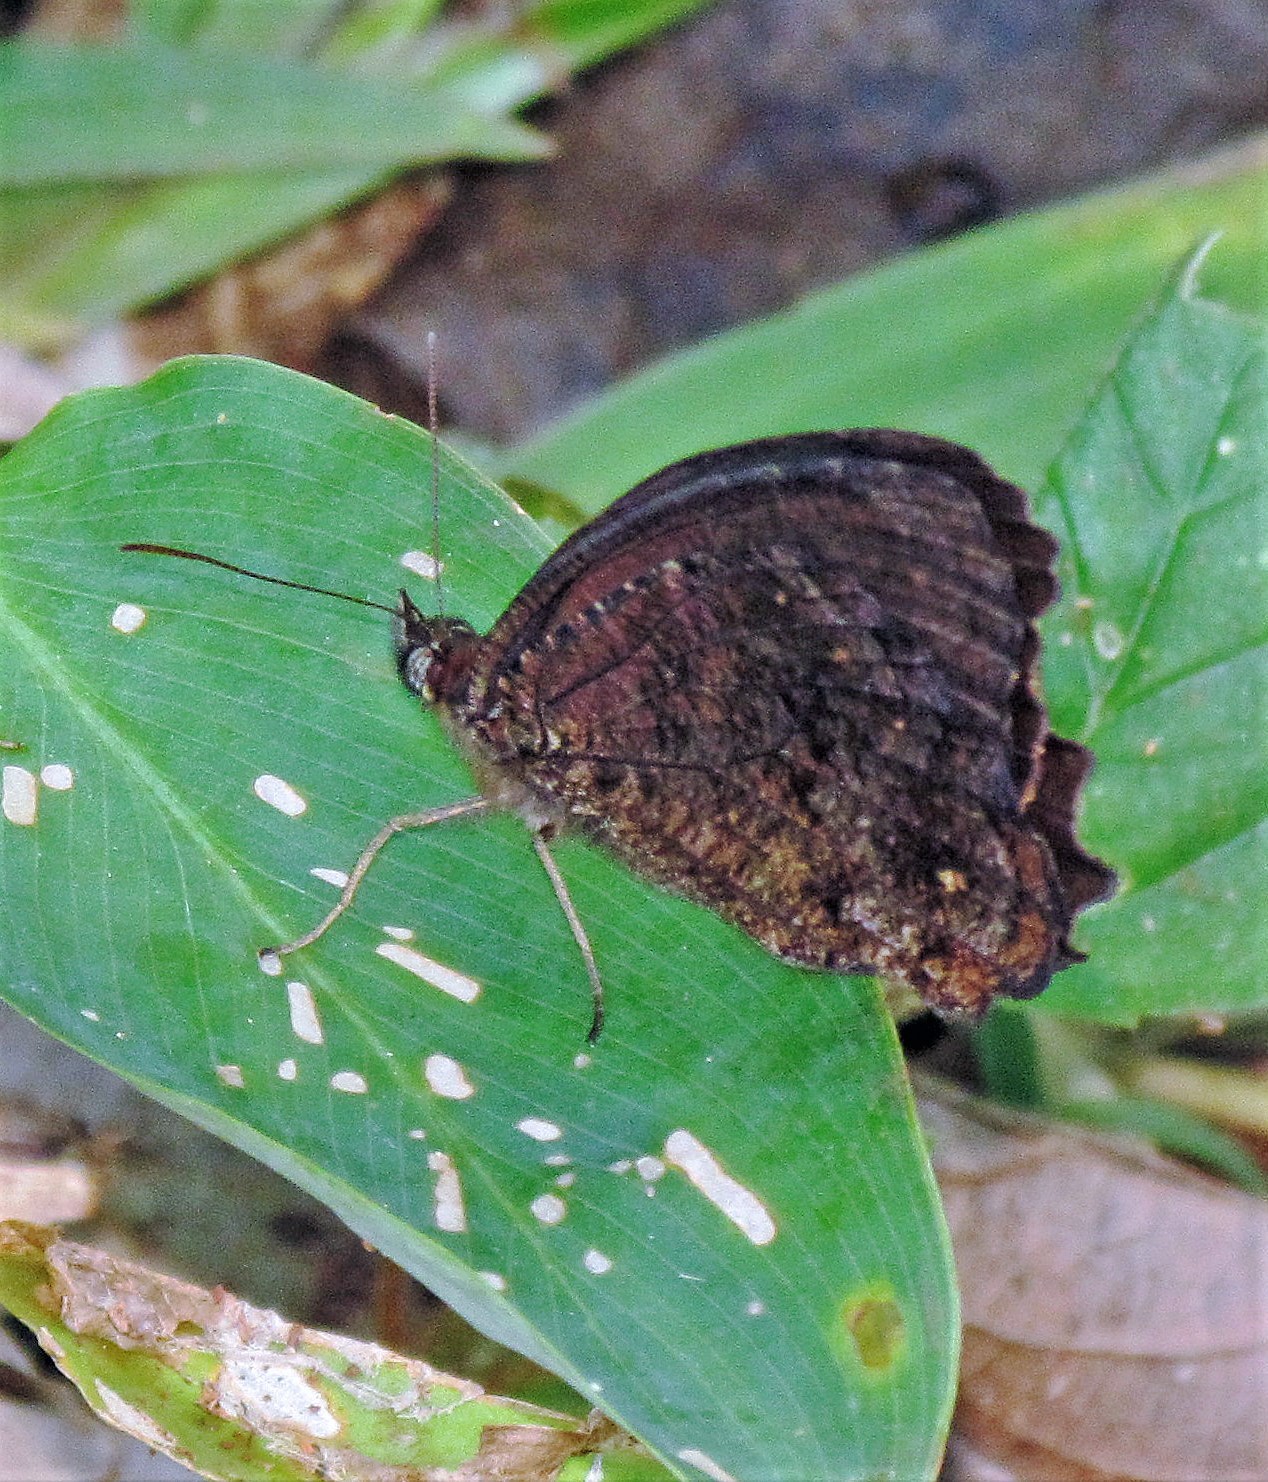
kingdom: Animalia
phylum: Arthropoda
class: Insecta
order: Lepidoptera
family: Nymphalidae
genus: Praepedaliodes
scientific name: Praepedaliodes phanias
